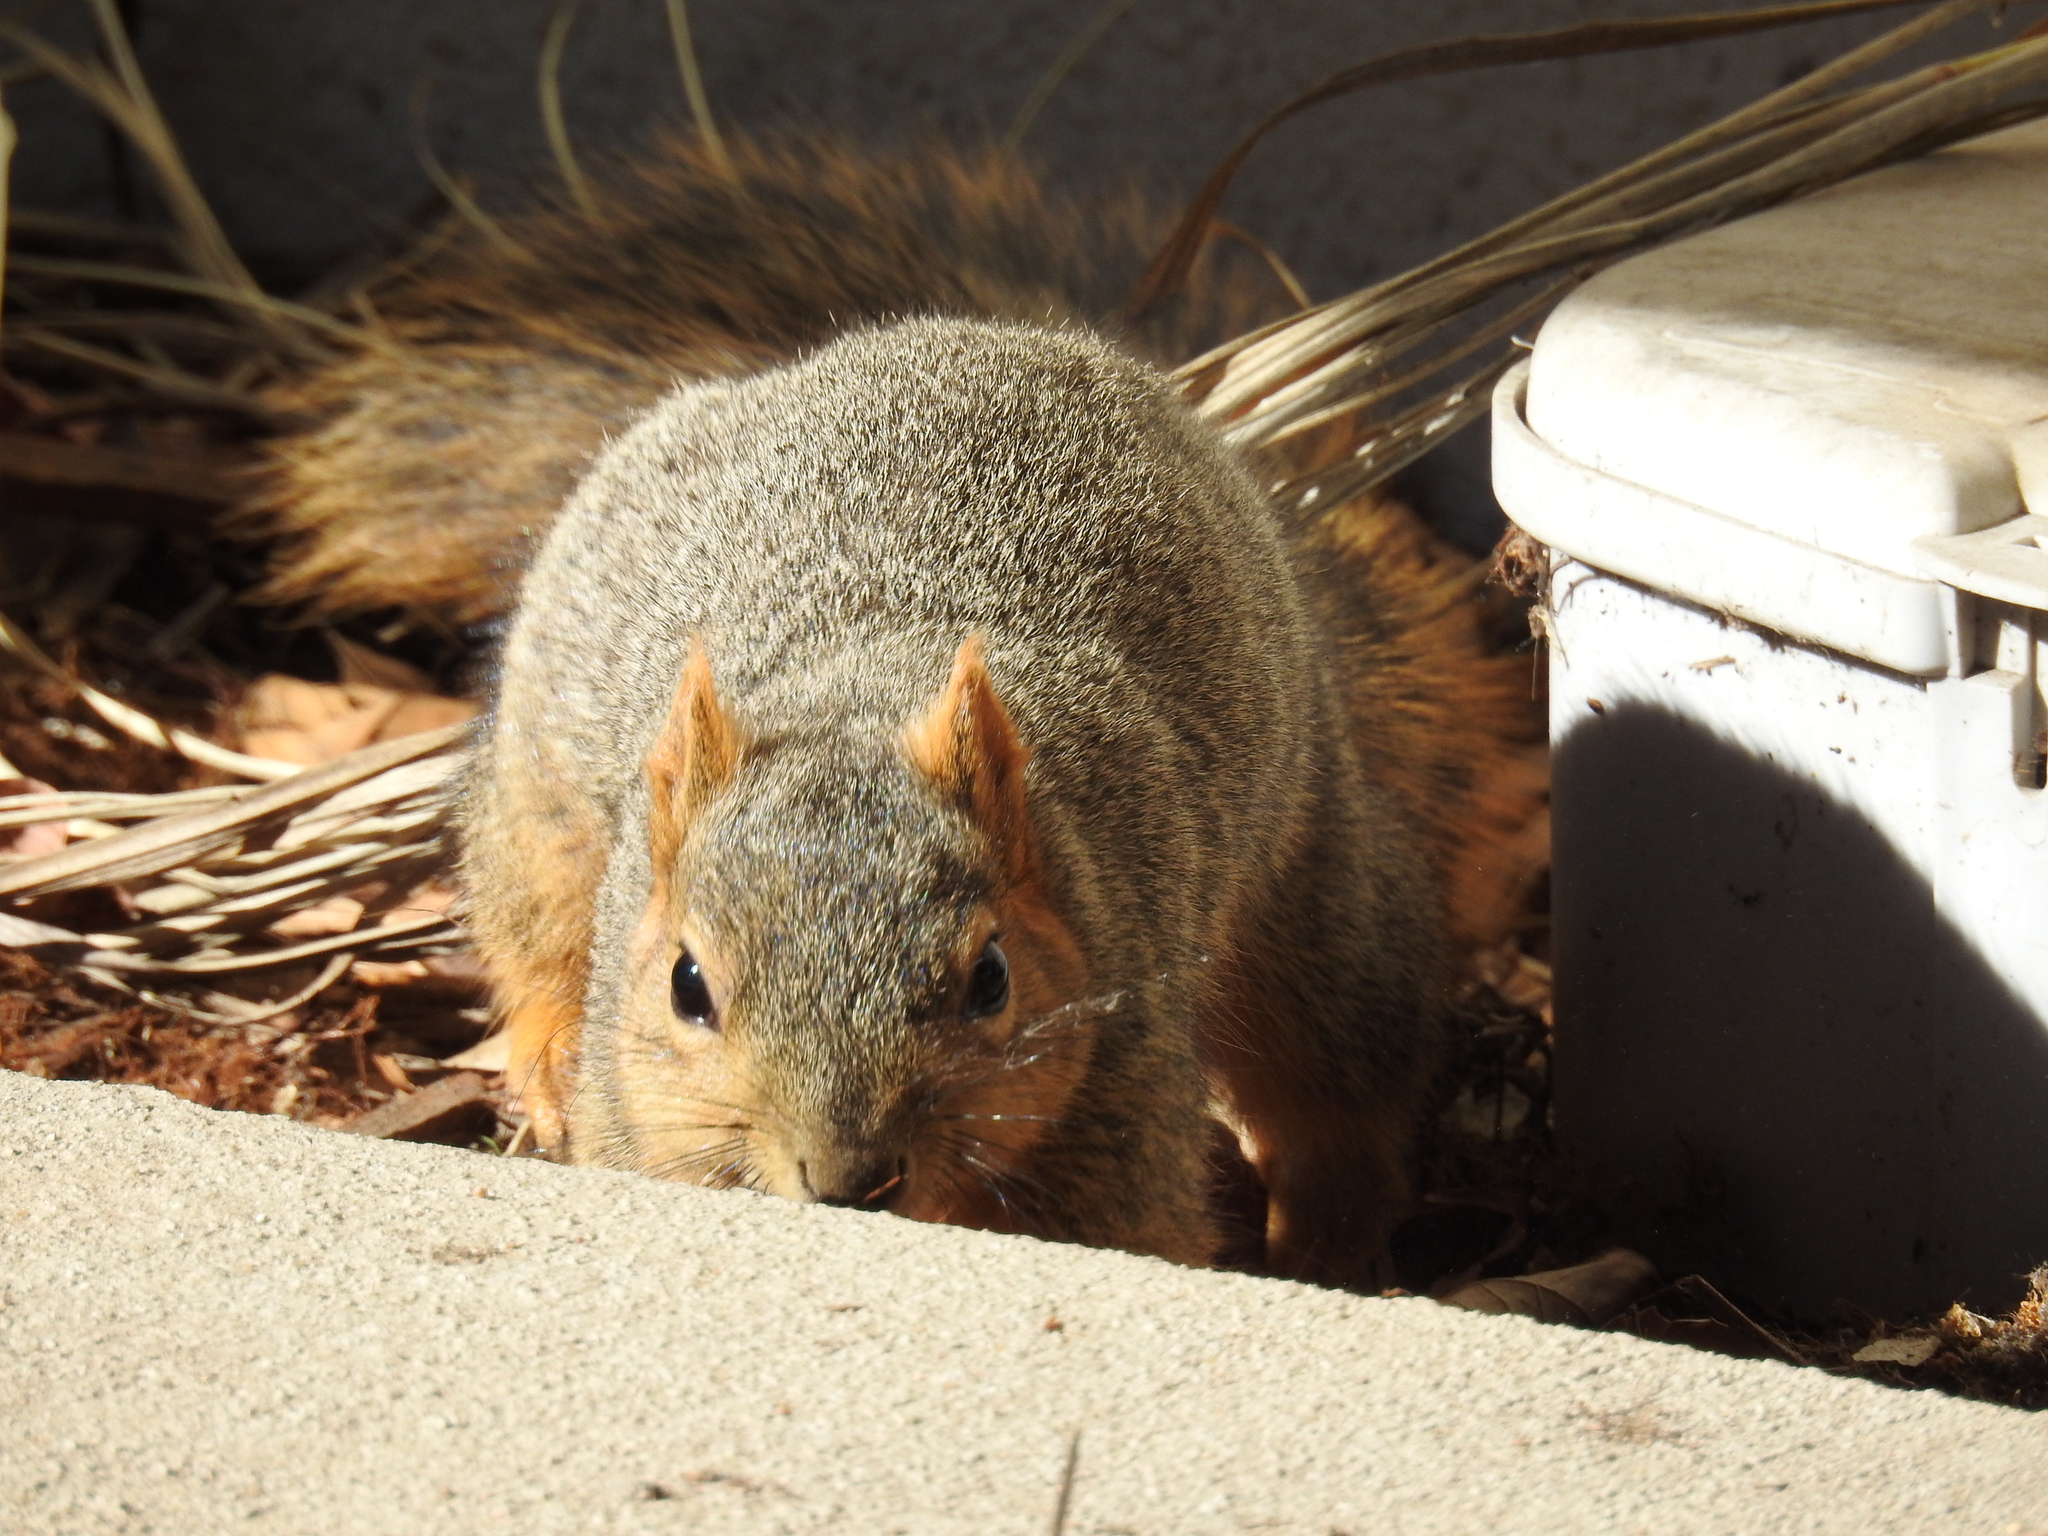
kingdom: Animalia
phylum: Chordata
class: Mammalia
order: Rodentia
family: Sciuridae
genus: Sciurus
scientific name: Sciurus niger
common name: Fox squirrel
